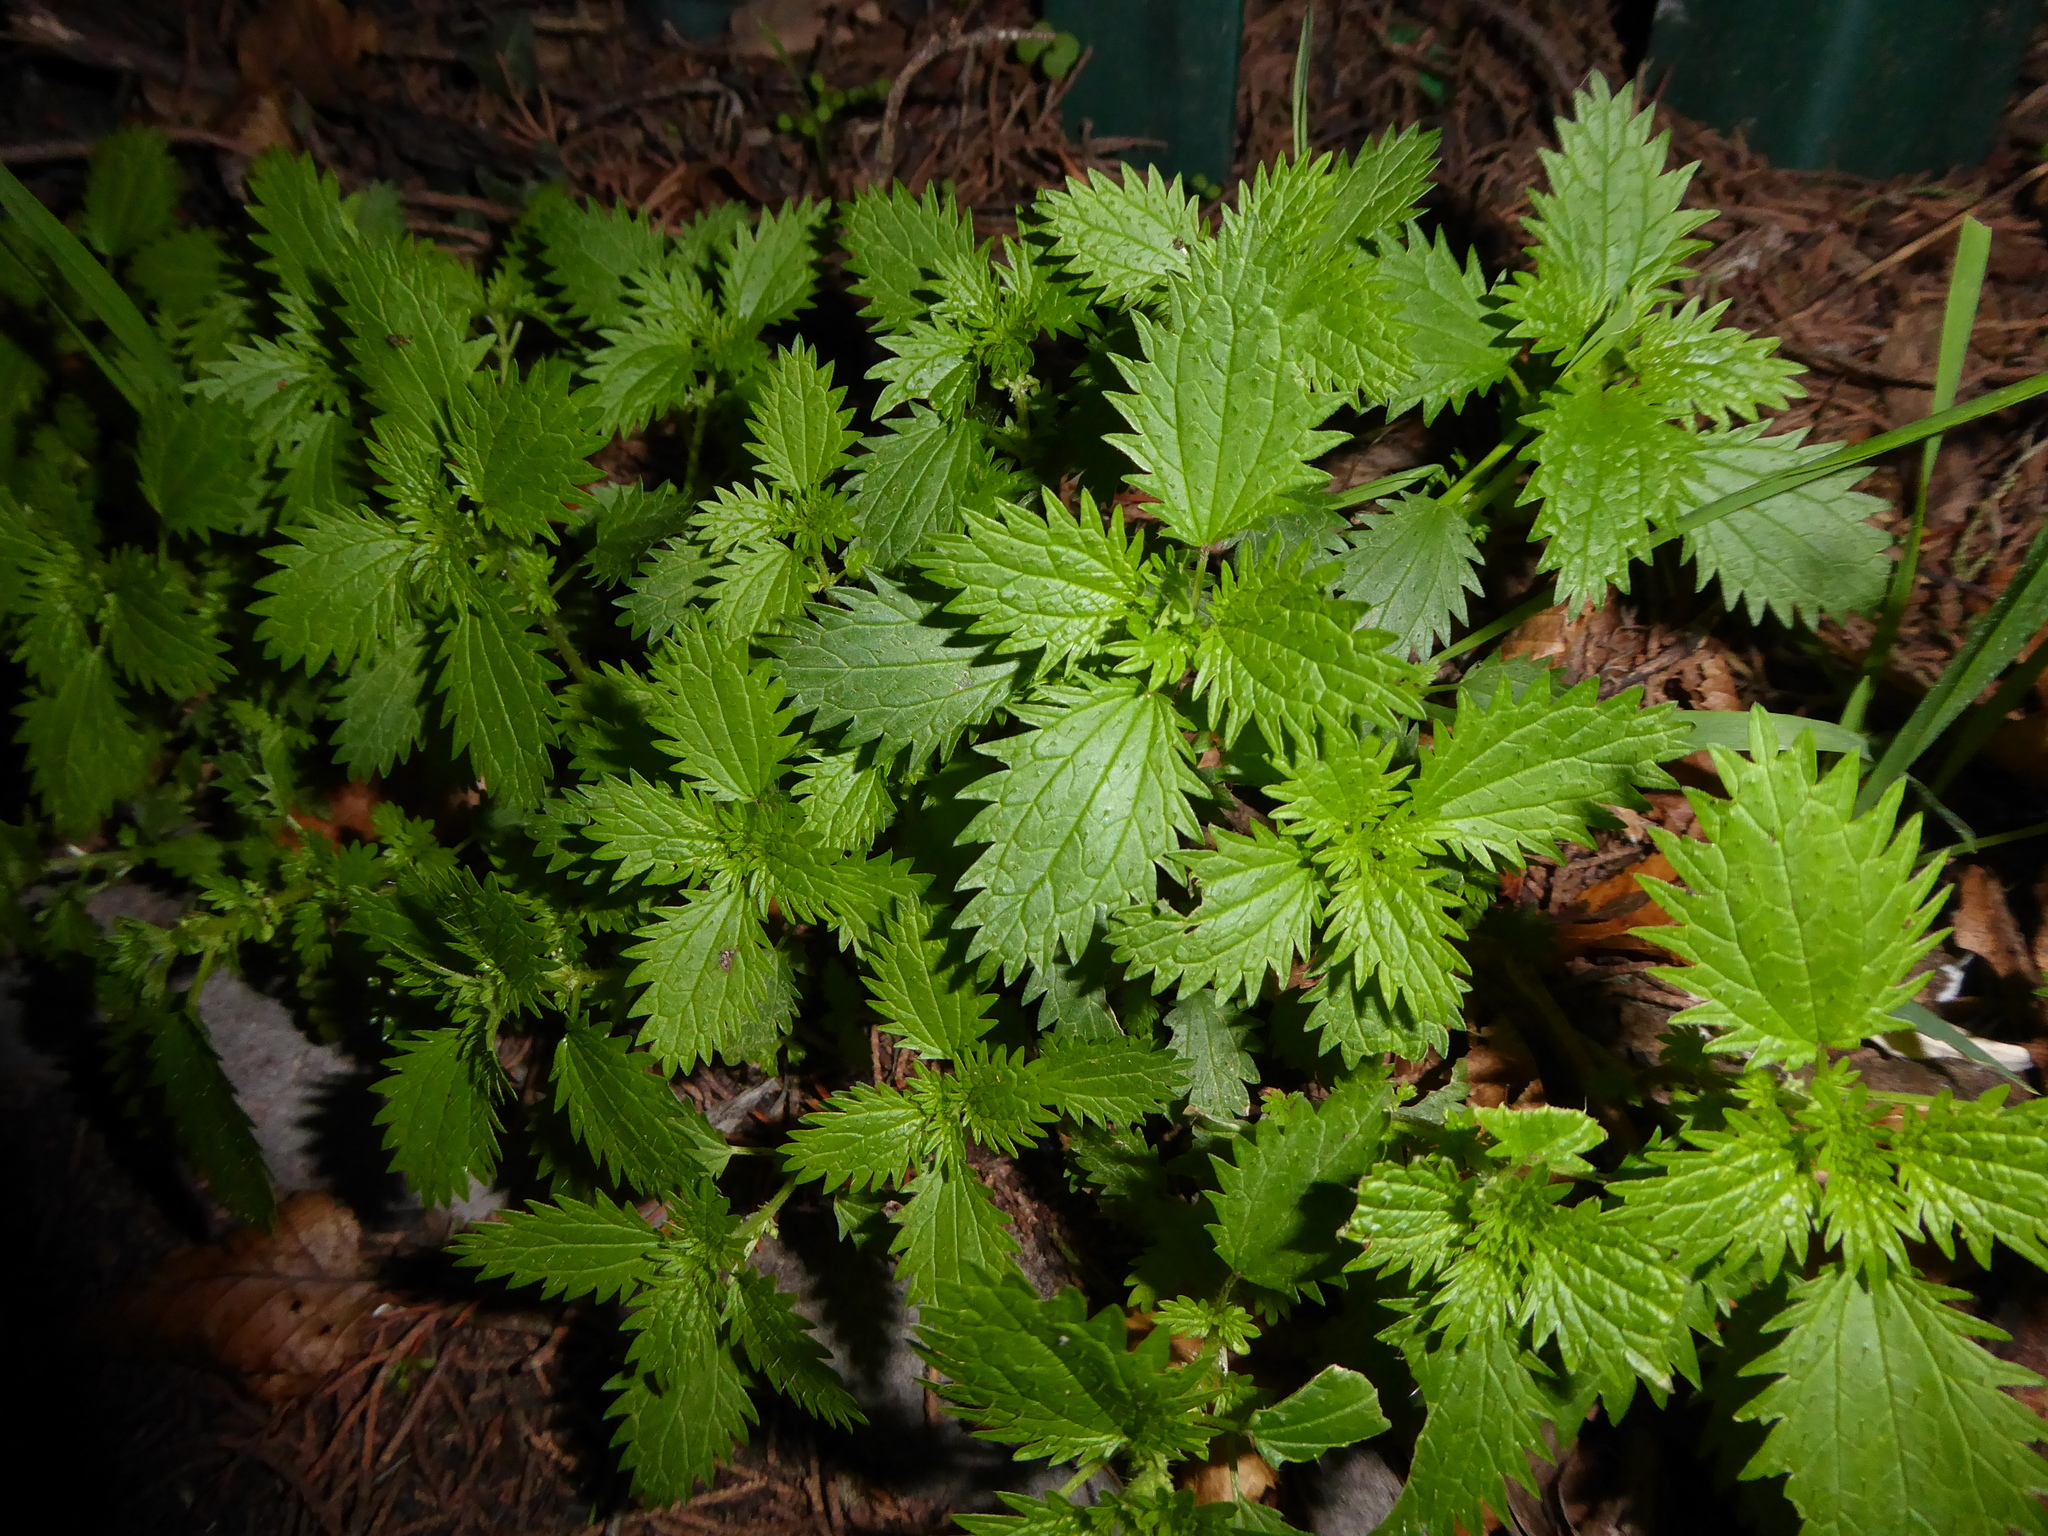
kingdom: Plantae
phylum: Tracheophyta
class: Magnoliopsida
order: Rosales
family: Urticaceae
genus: Urtica
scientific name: Urtica urens
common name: Dwarf nettle
